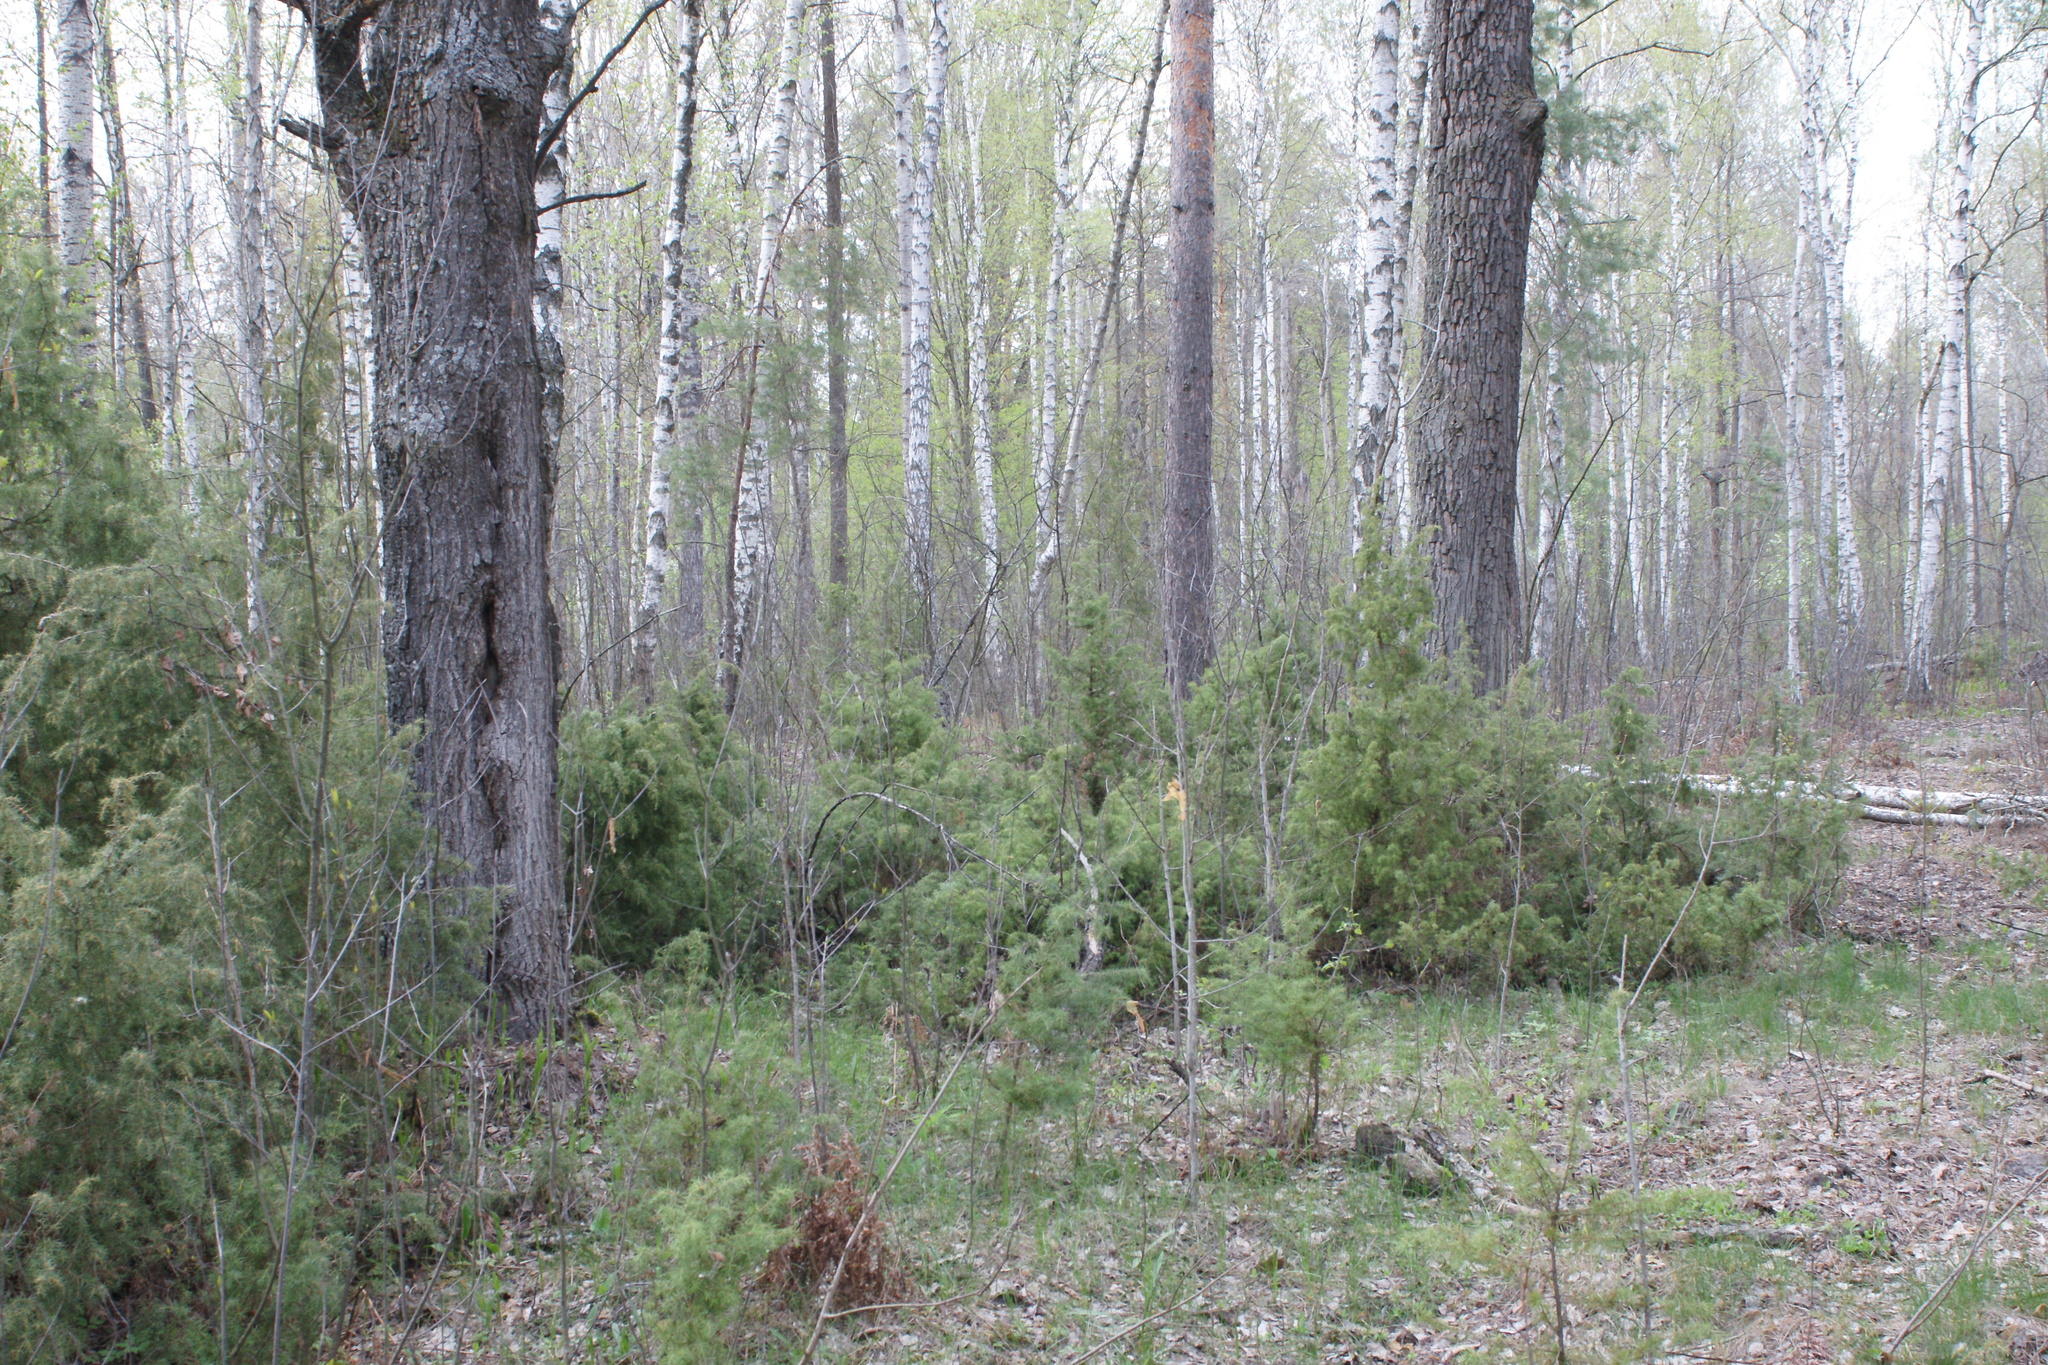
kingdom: Plantae
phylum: Tracheophyta
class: Pinopsida
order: Pinales
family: Cupressaceae
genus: Juniperus
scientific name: Juniperus communis
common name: Common juniper
